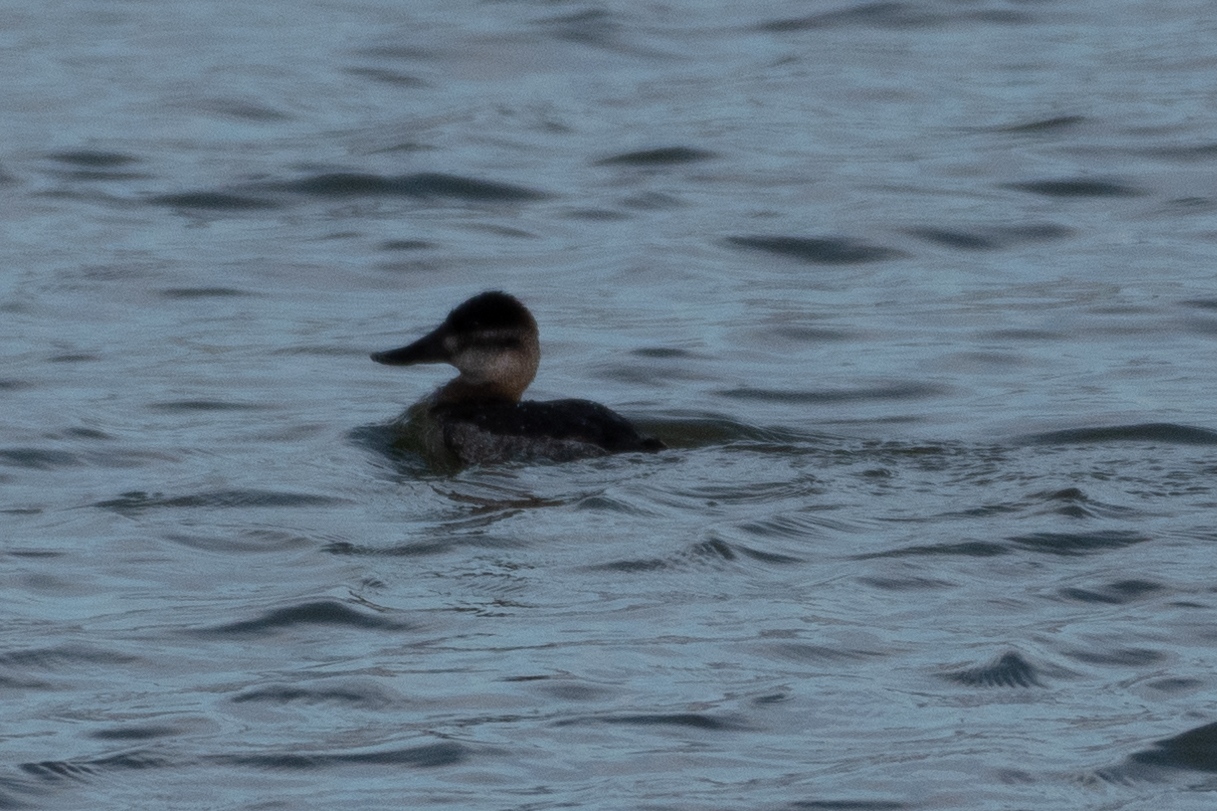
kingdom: Animalia
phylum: Chordata
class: Aves
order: Anseriformes
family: Anatidae
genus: Oxyura
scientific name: Oxyura jamaicensis
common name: Ruddy duck
